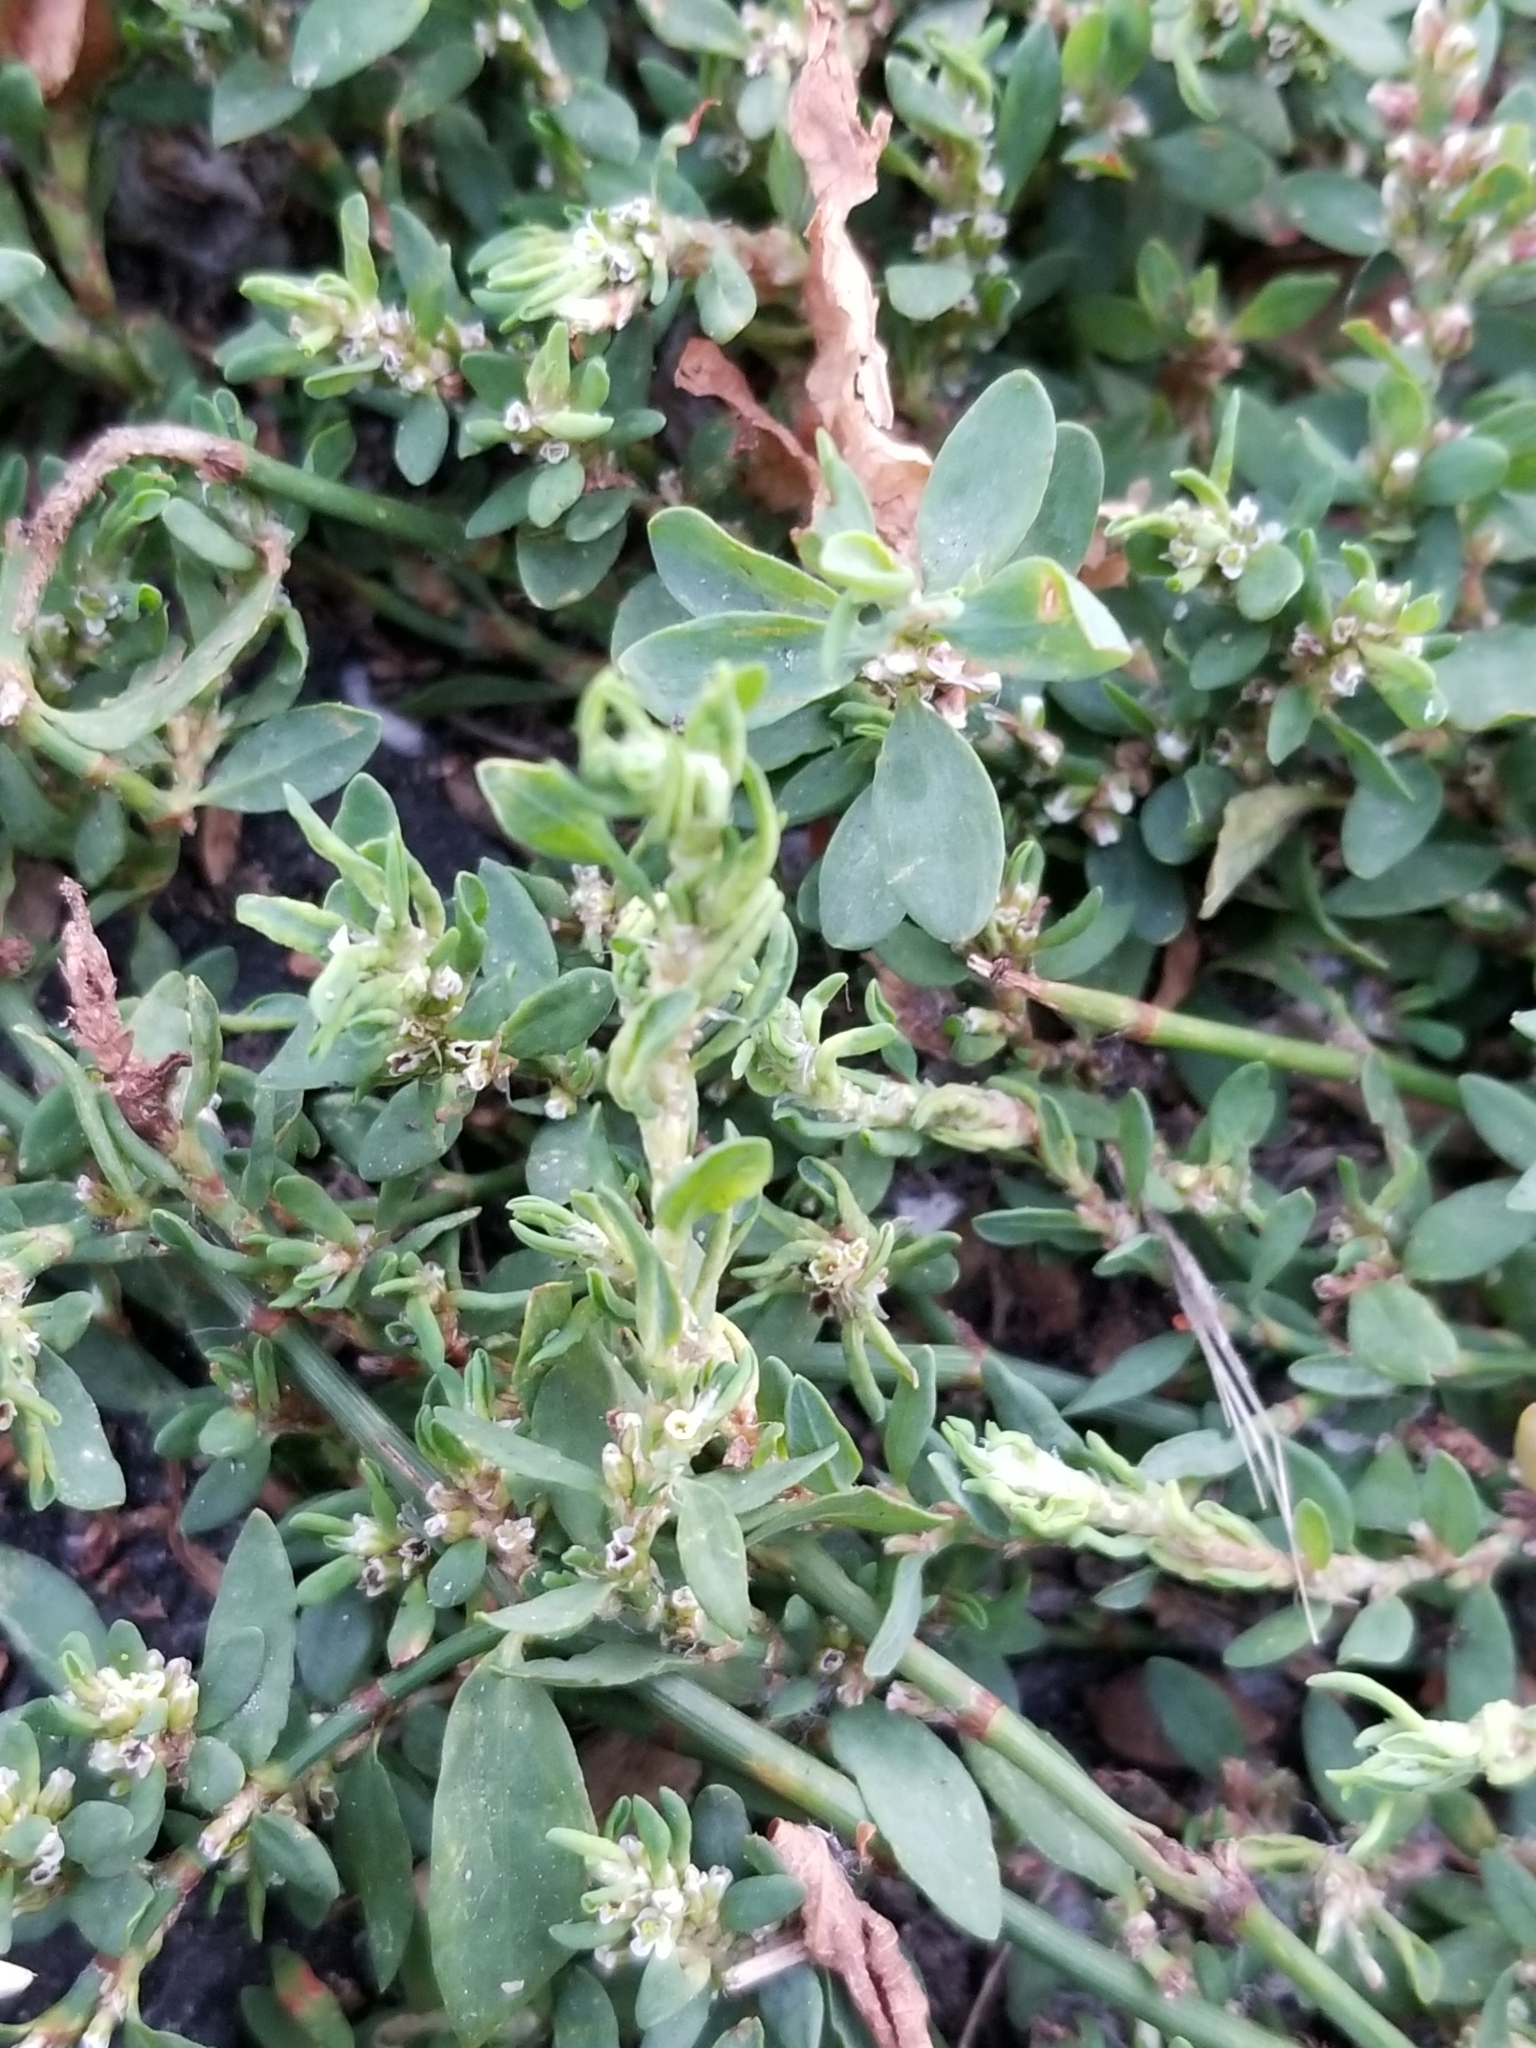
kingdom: Plantae
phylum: Tracheophyta
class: Magnoliopsida
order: Caryophyllales
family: Polygonaceae
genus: Polygonum
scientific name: Polygonum aviculare
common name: Prostrate knotweed
